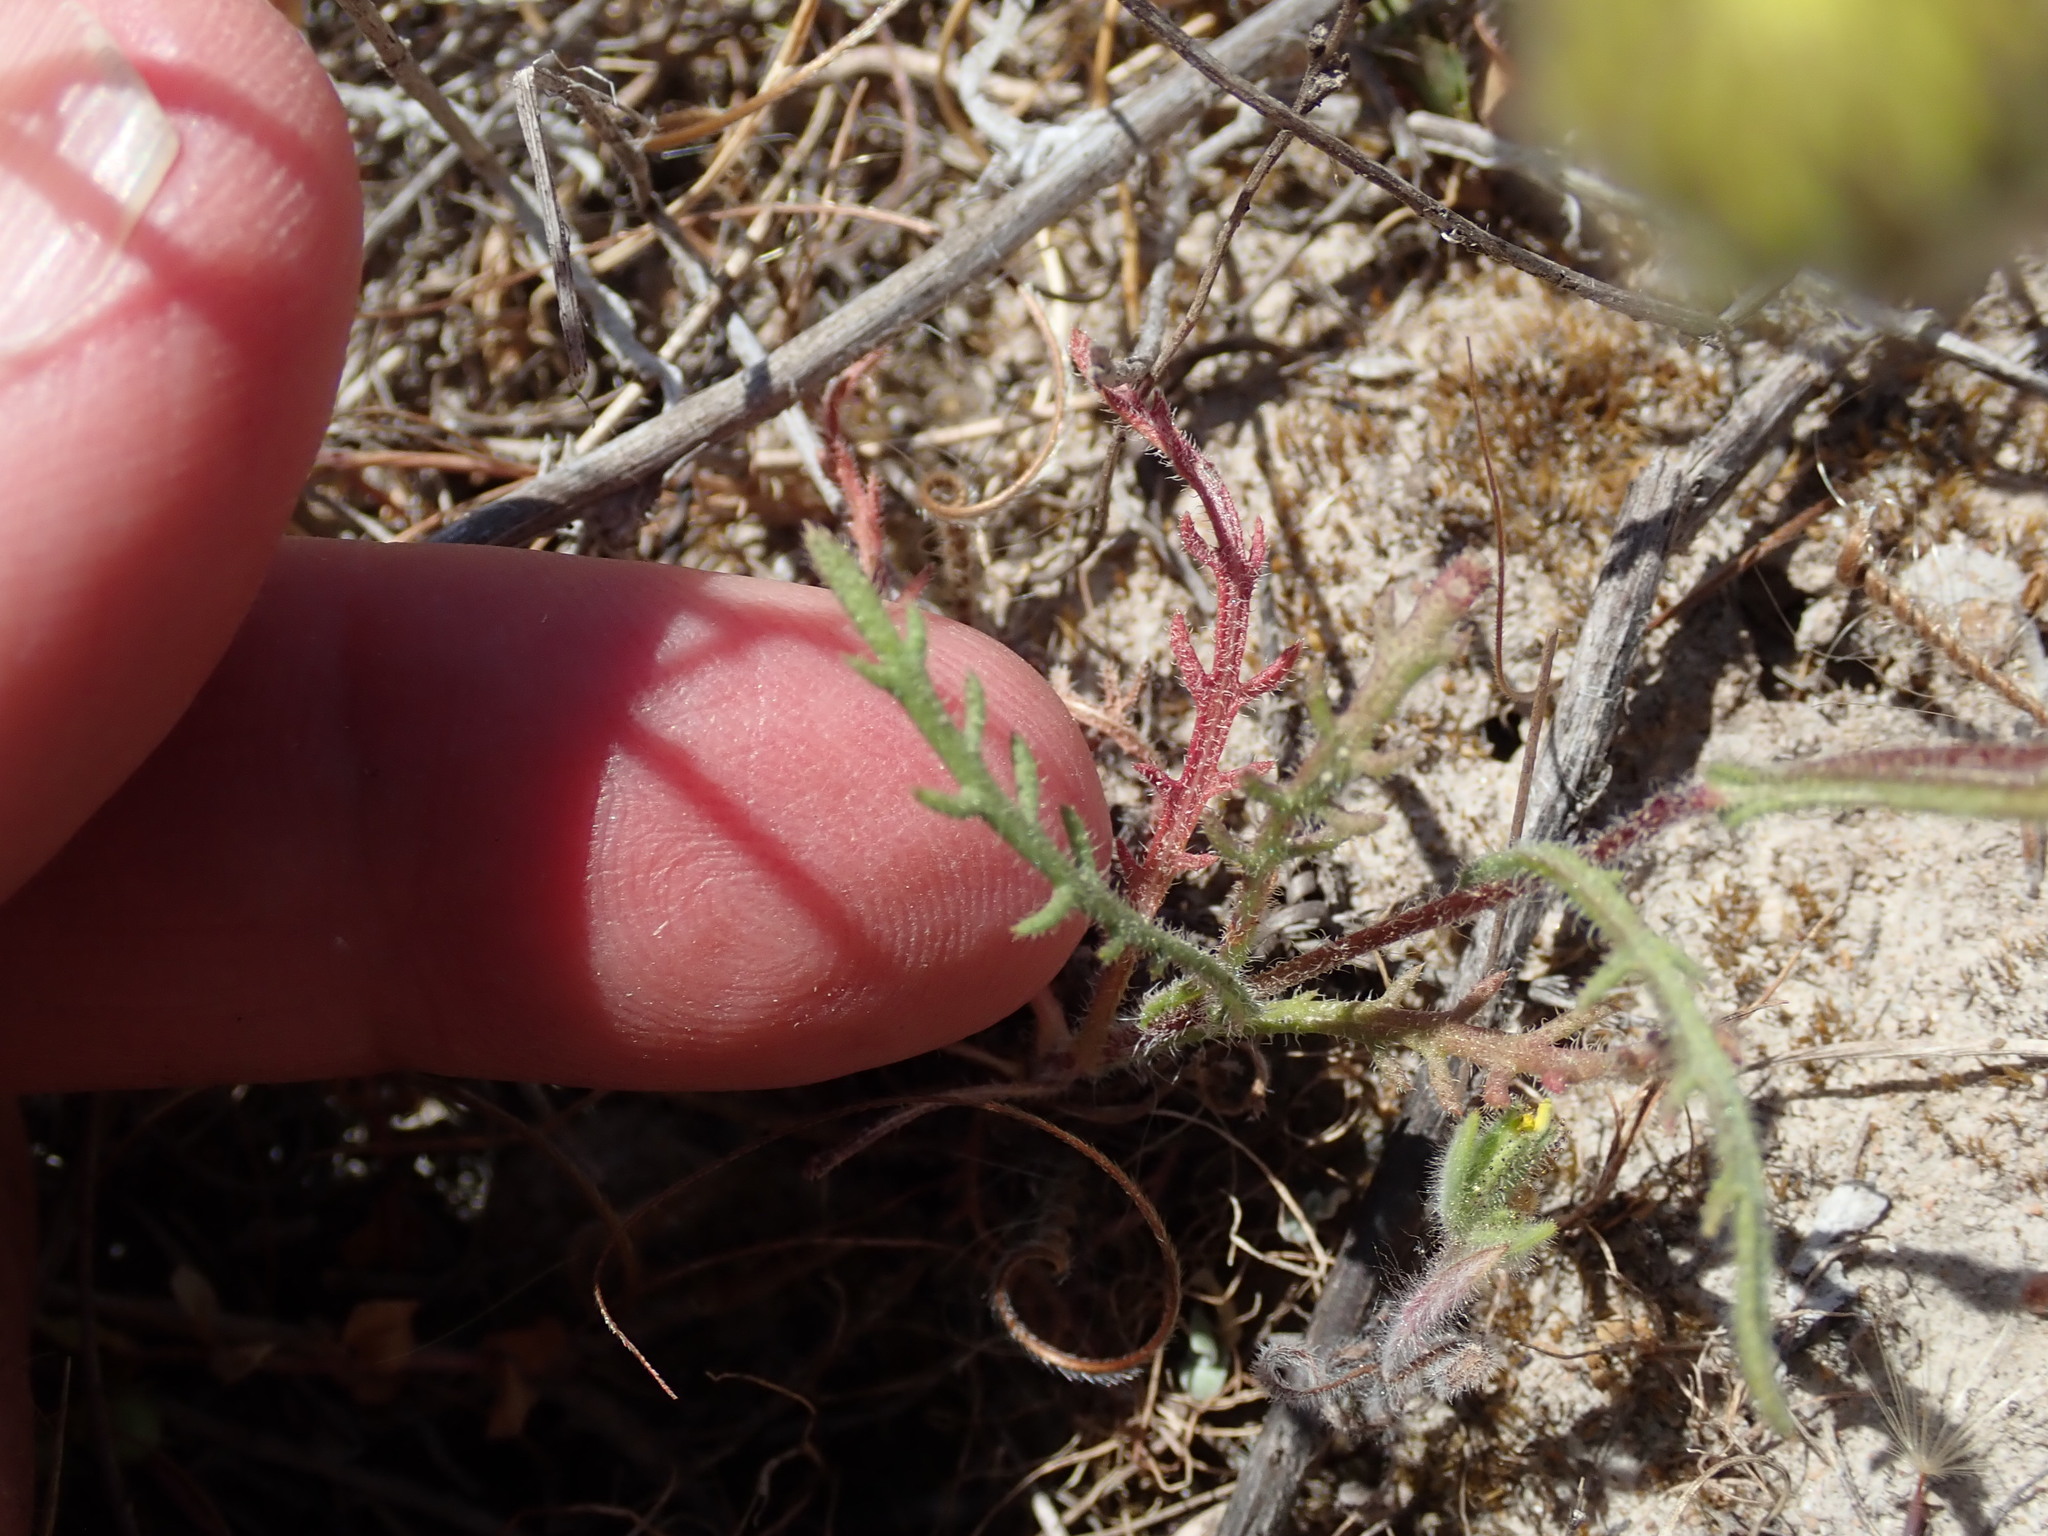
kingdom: Plantae
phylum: Tracheophyta
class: Magnoliopsida
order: Asterales
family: Asteraceae
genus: Deinandra
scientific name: Deinandra corymbosa
